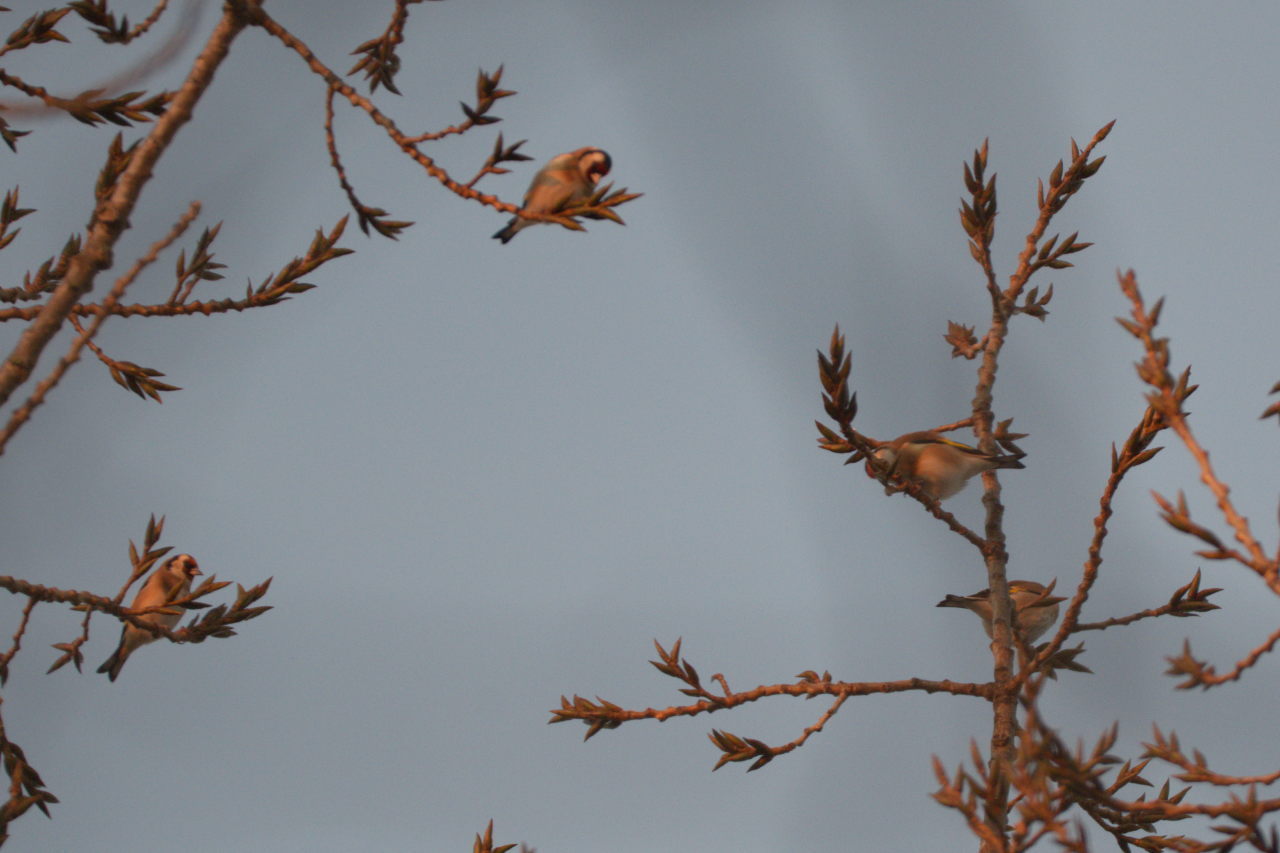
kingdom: Animalia
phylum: Chordata
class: Aves
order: Passeriformes
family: Fringillidae
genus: Carduelis
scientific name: Carduelis carduelis
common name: European goldfinch
